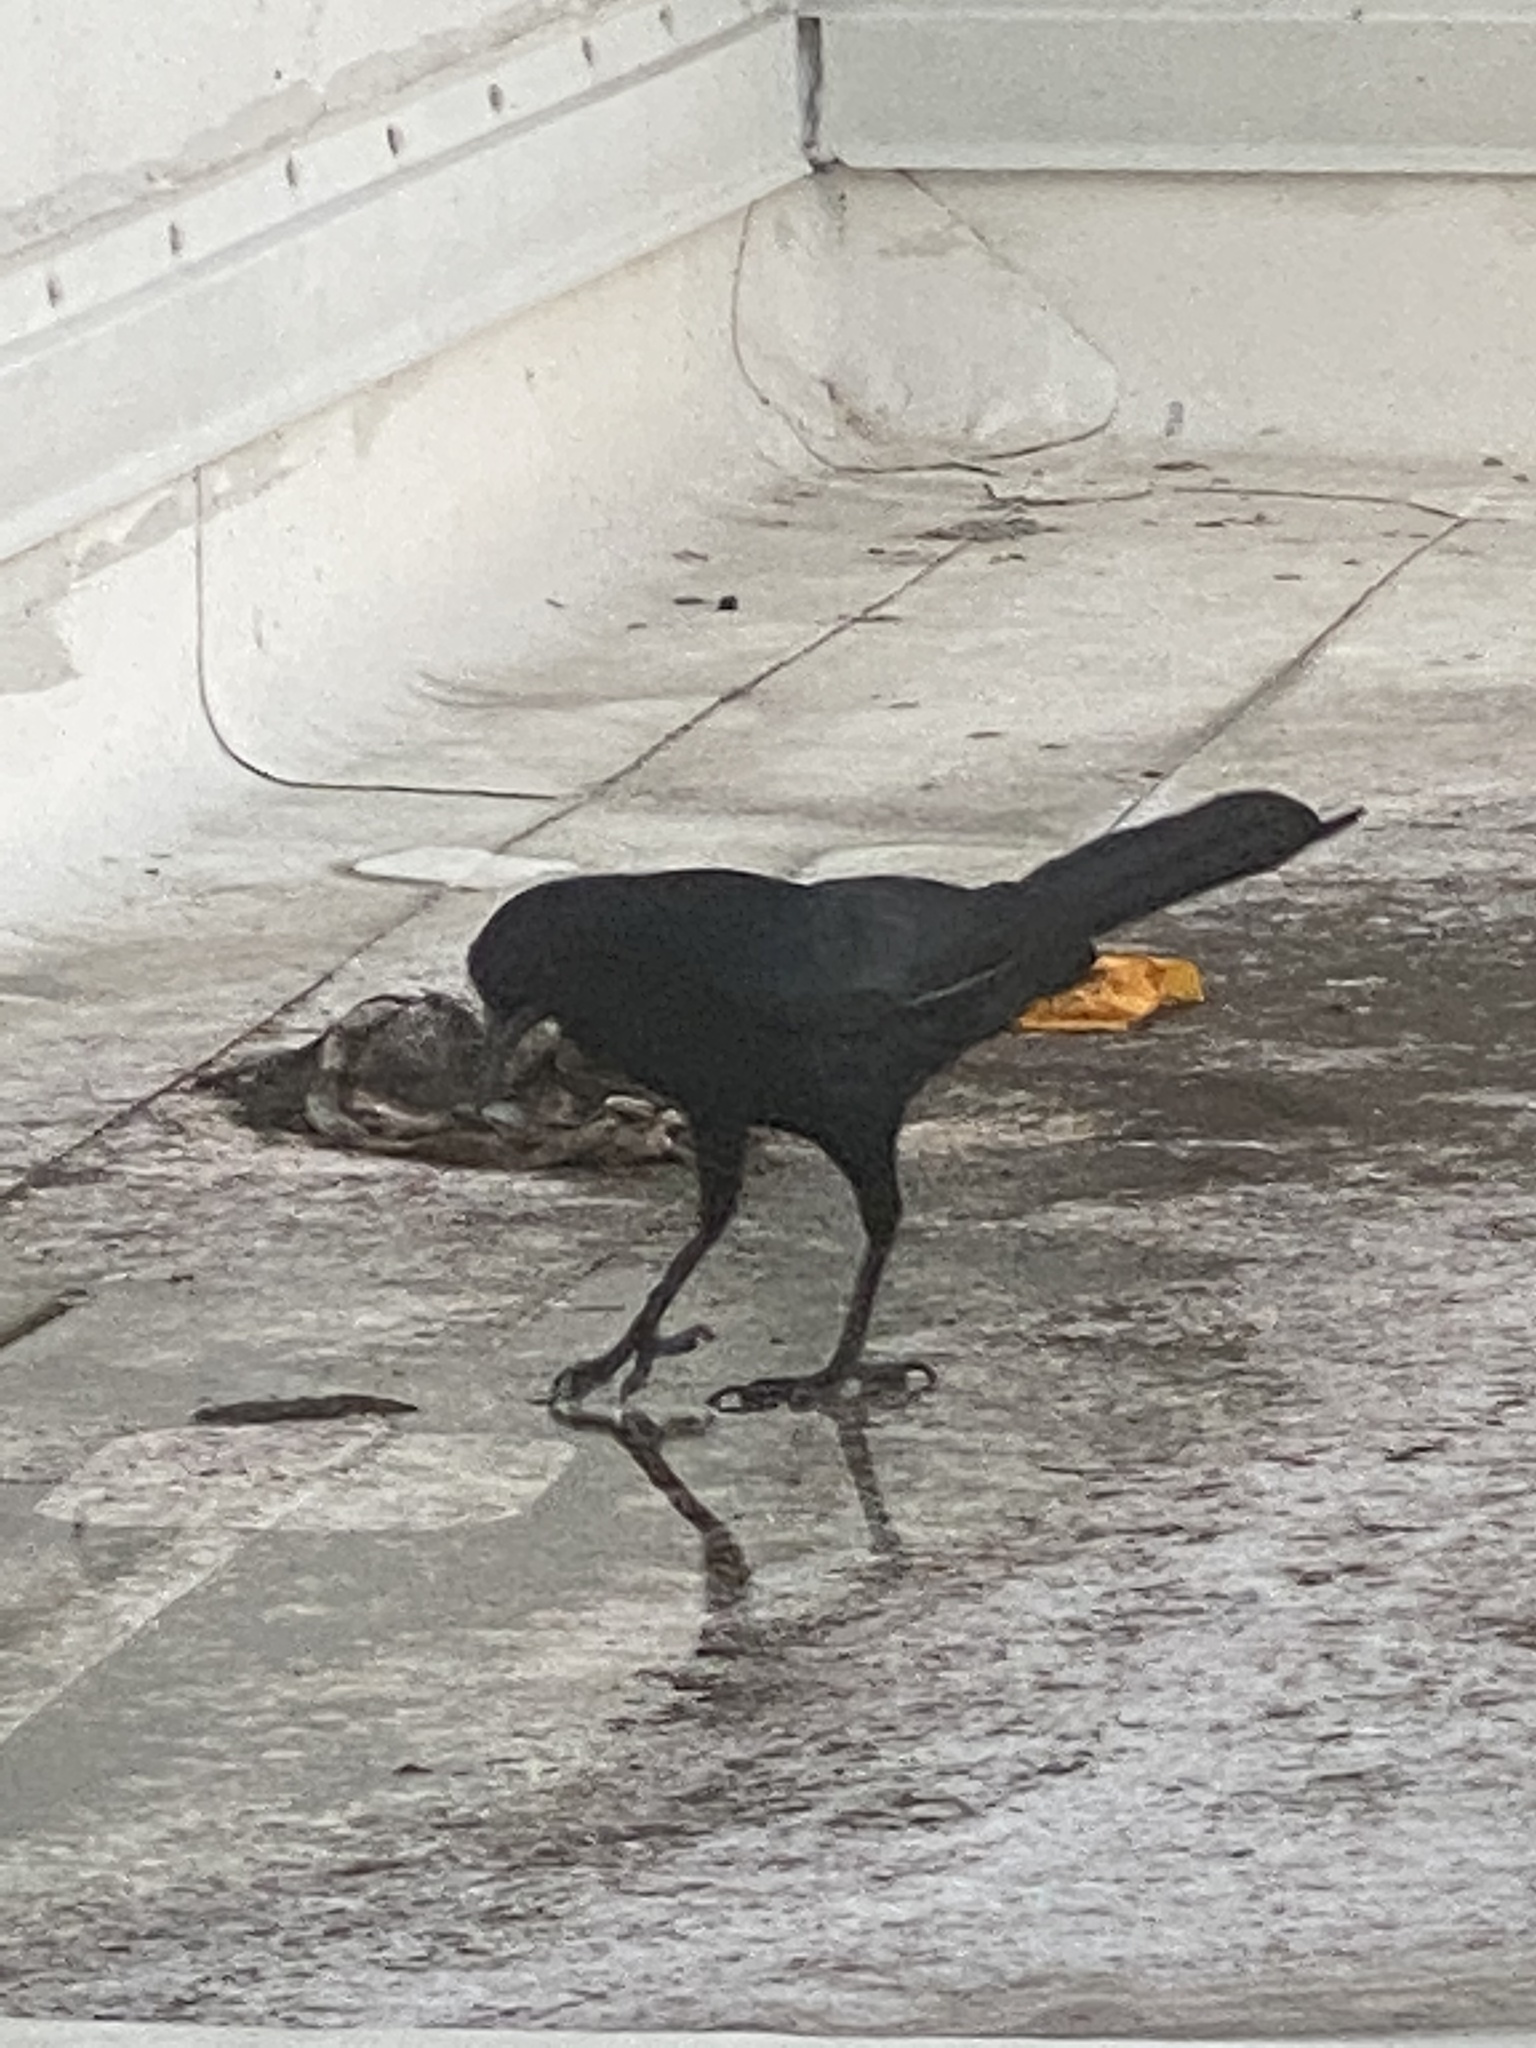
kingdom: Animalia
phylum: Chordata
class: Aves
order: Passeriformes
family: Icteridae
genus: Quiscalus
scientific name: Quiscalus major
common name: Boat-tailed grackle
